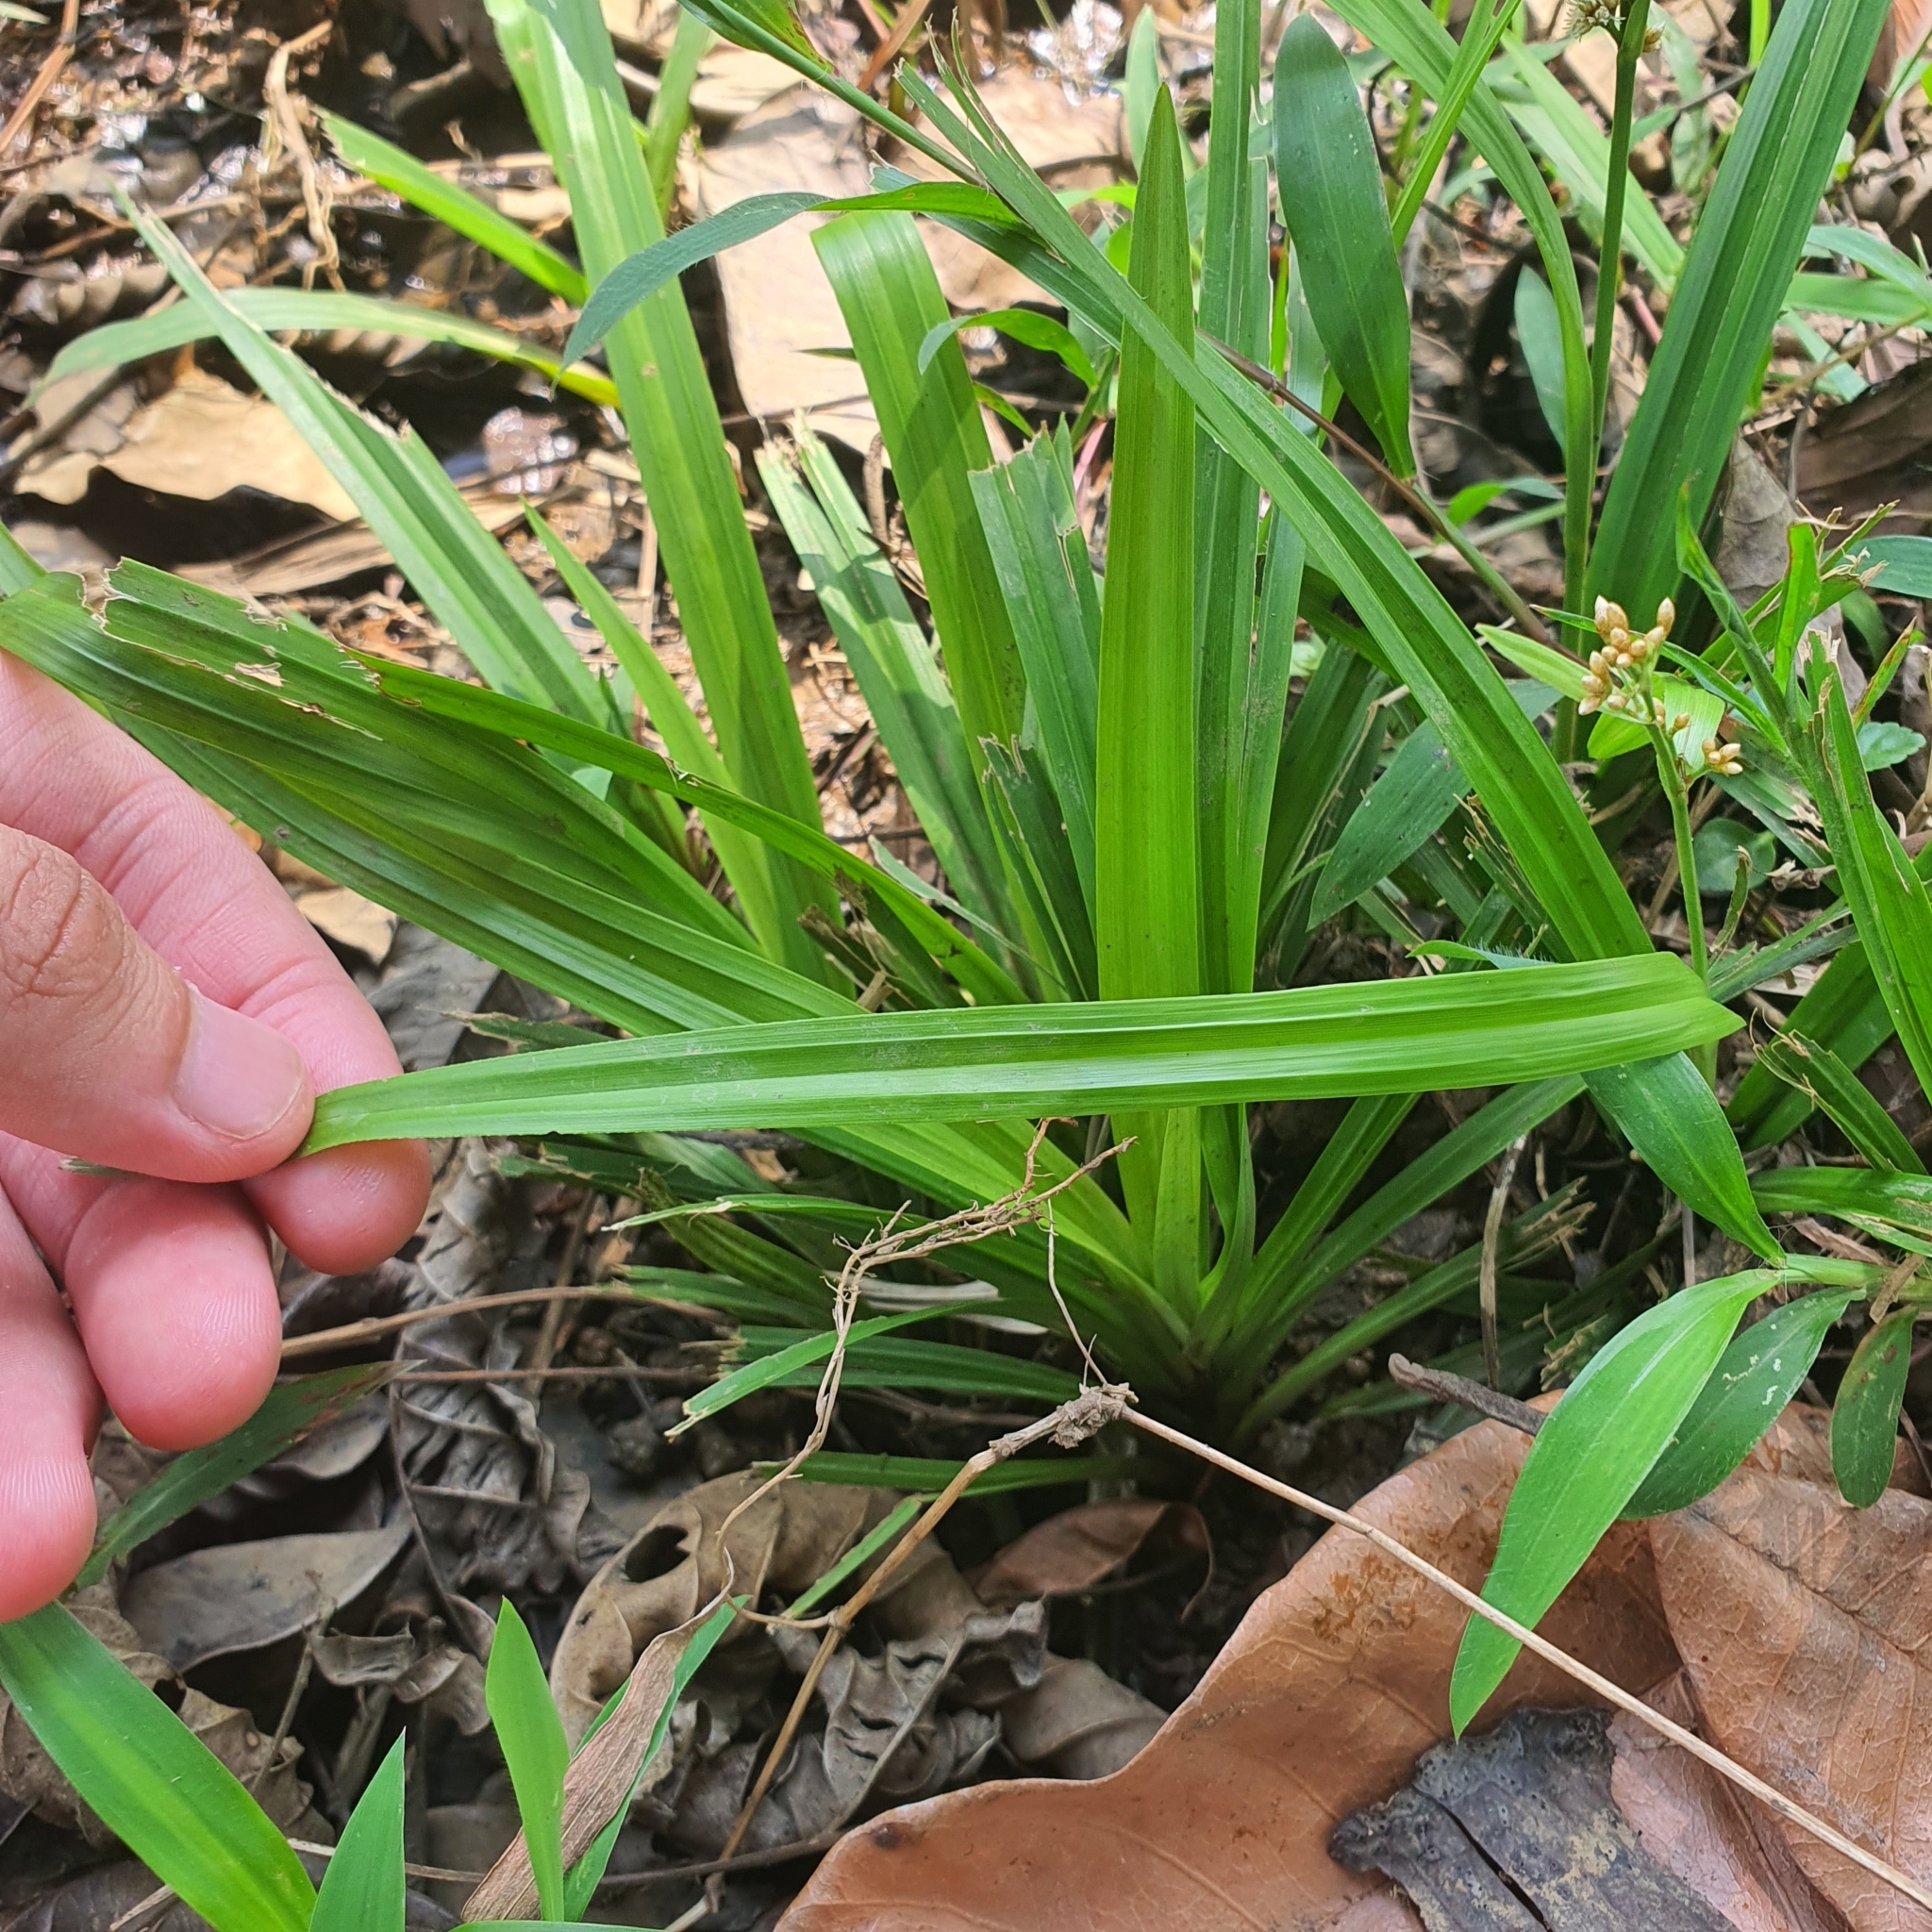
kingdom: Plantae
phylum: Tracheophyta
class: Liliopsida
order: Poales
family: Cyperaceae
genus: Hypolytrum
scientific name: Hypolytrum nemorum
